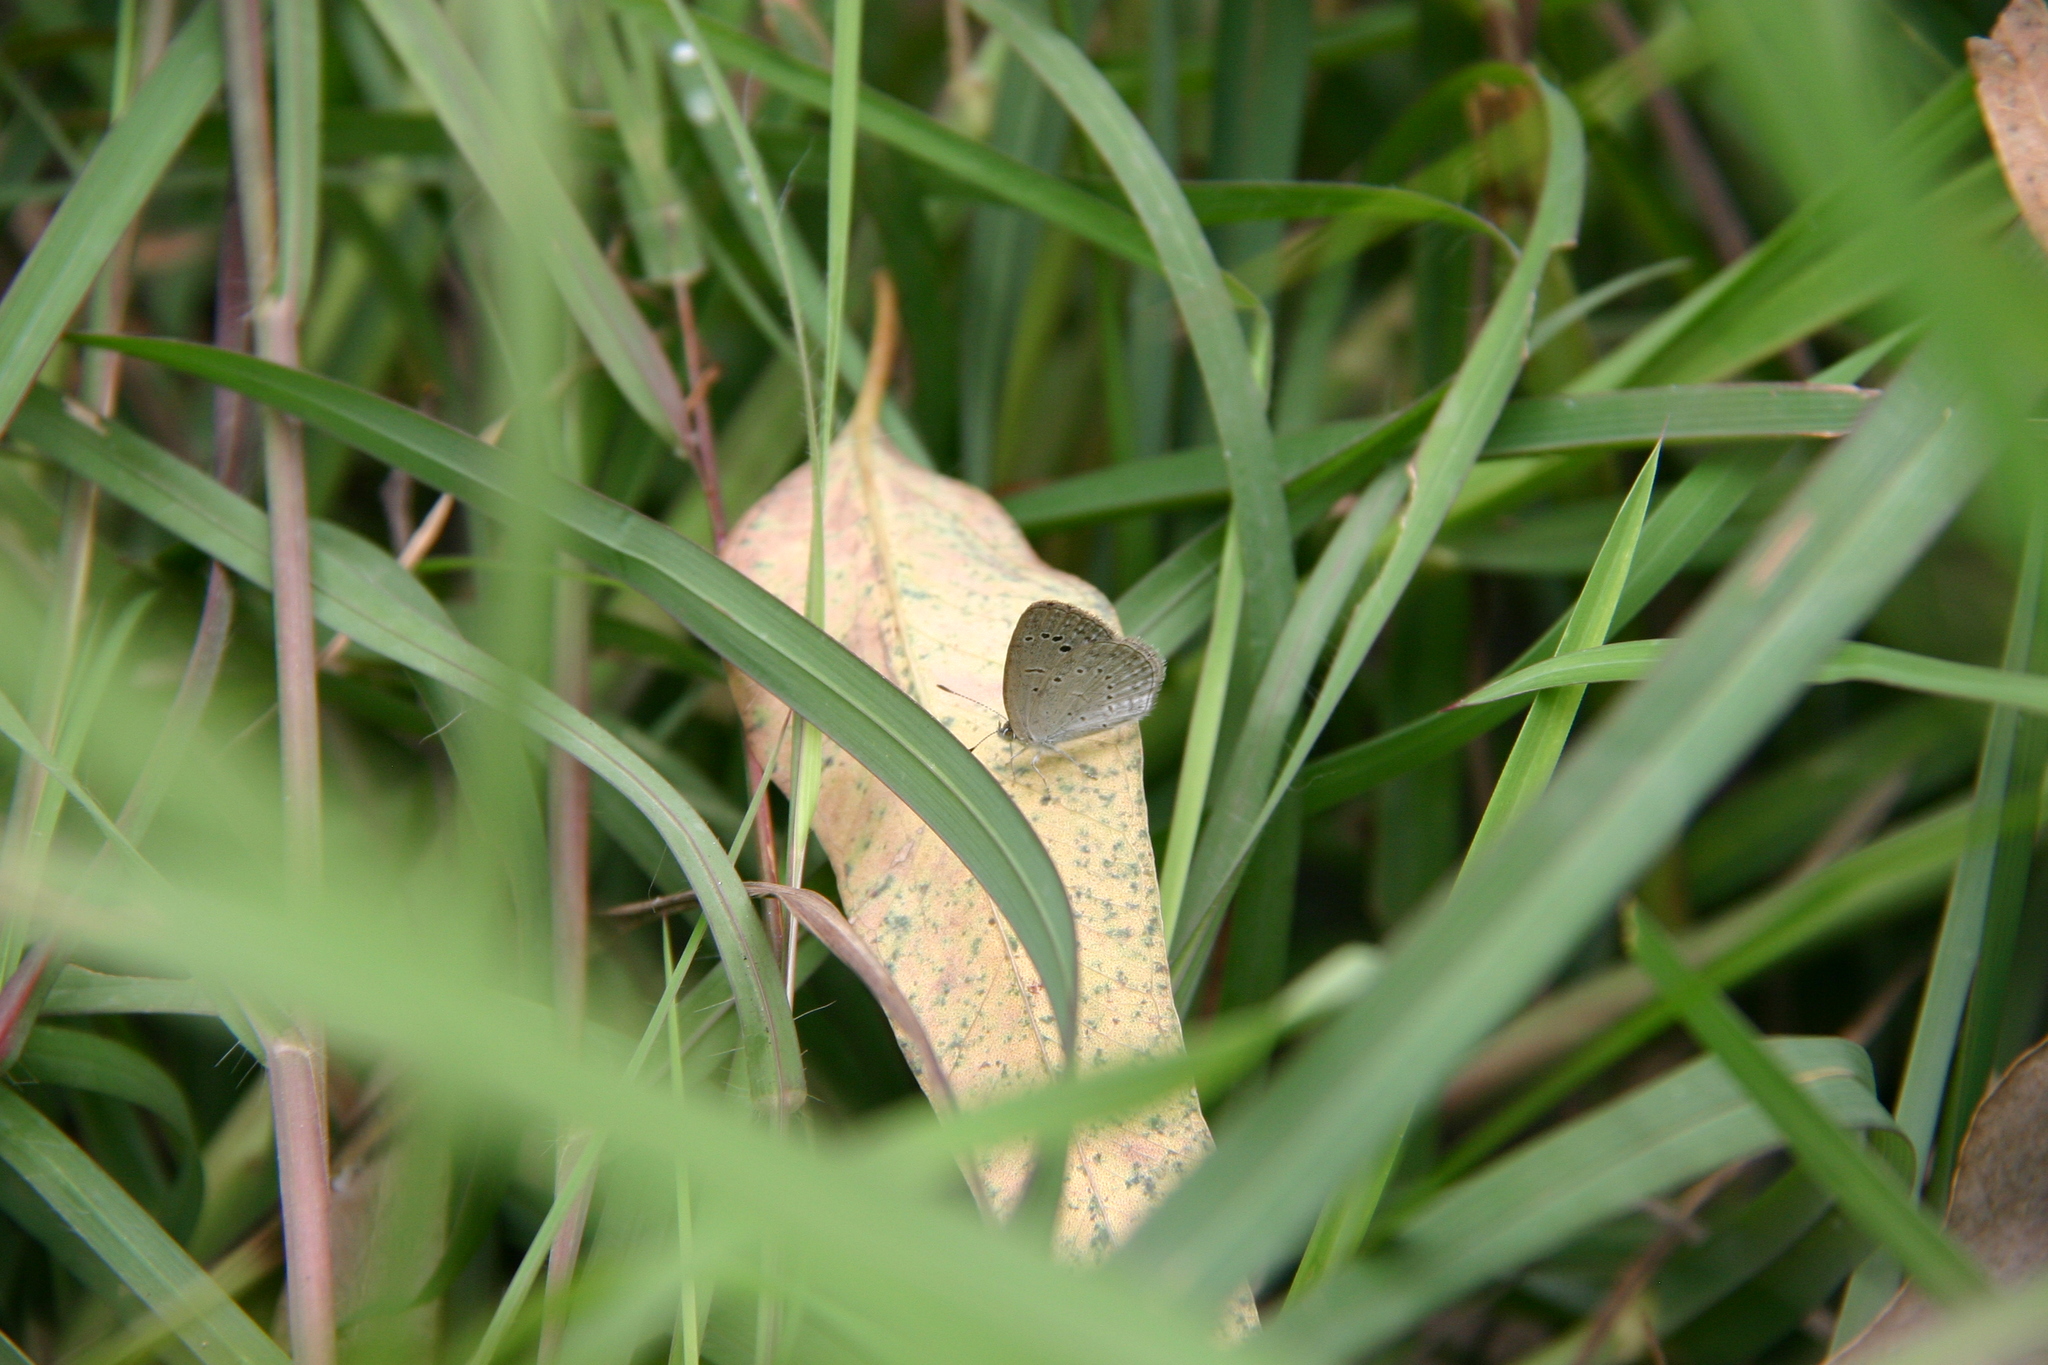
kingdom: Animalia
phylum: Arthropoda
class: Insecta
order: Lepidoptera
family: Lycaenidae
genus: Pseudozizeeria
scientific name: Pseudozizeeria maha
